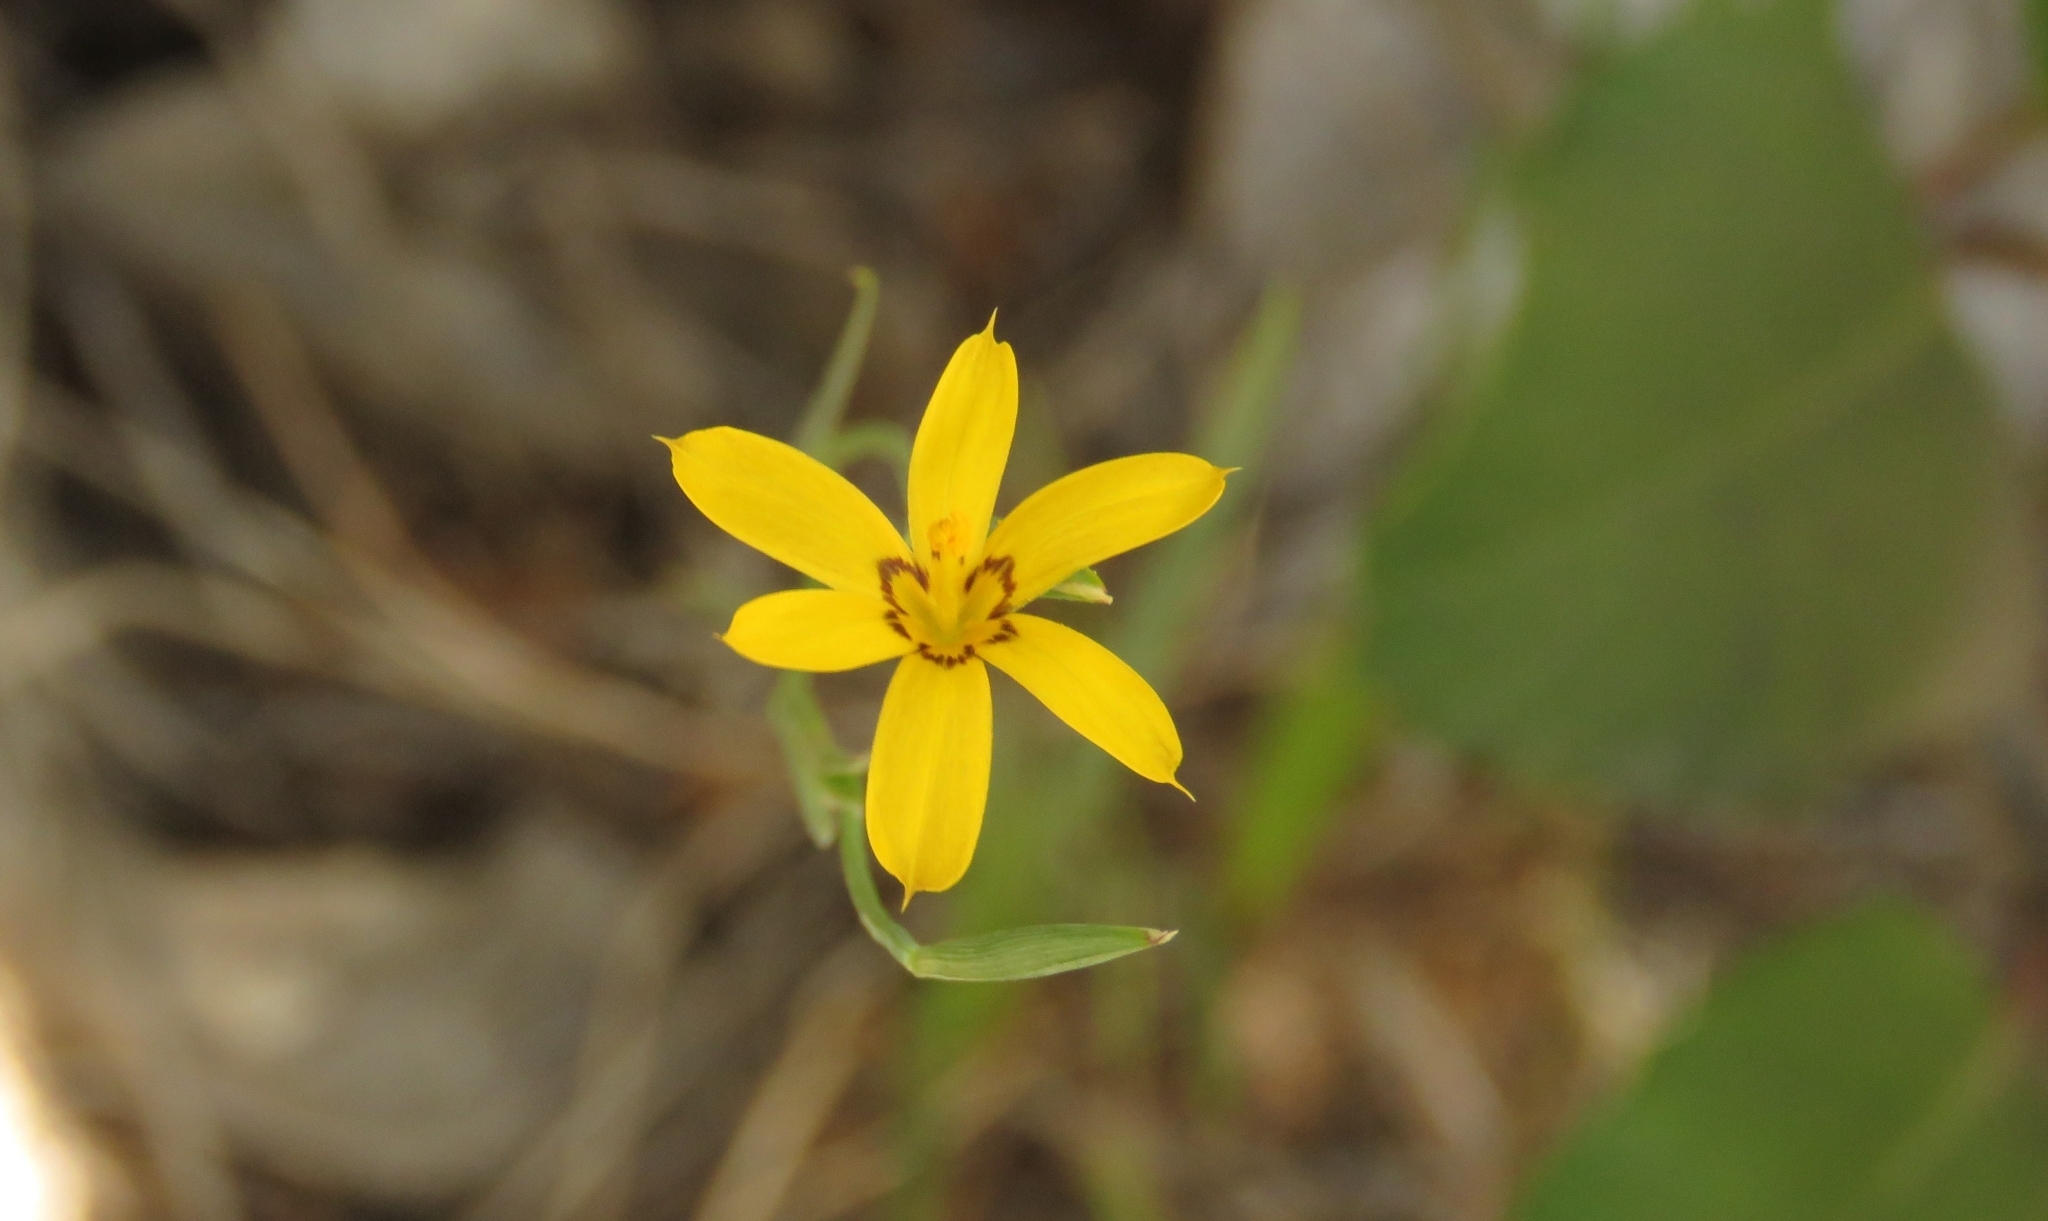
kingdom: Plantae
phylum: Tracheophyta
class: Liliopsida
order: Asparagales
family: Iridaceae
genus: Sisyrinchium
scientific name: Sisyrinchium patagonicum
